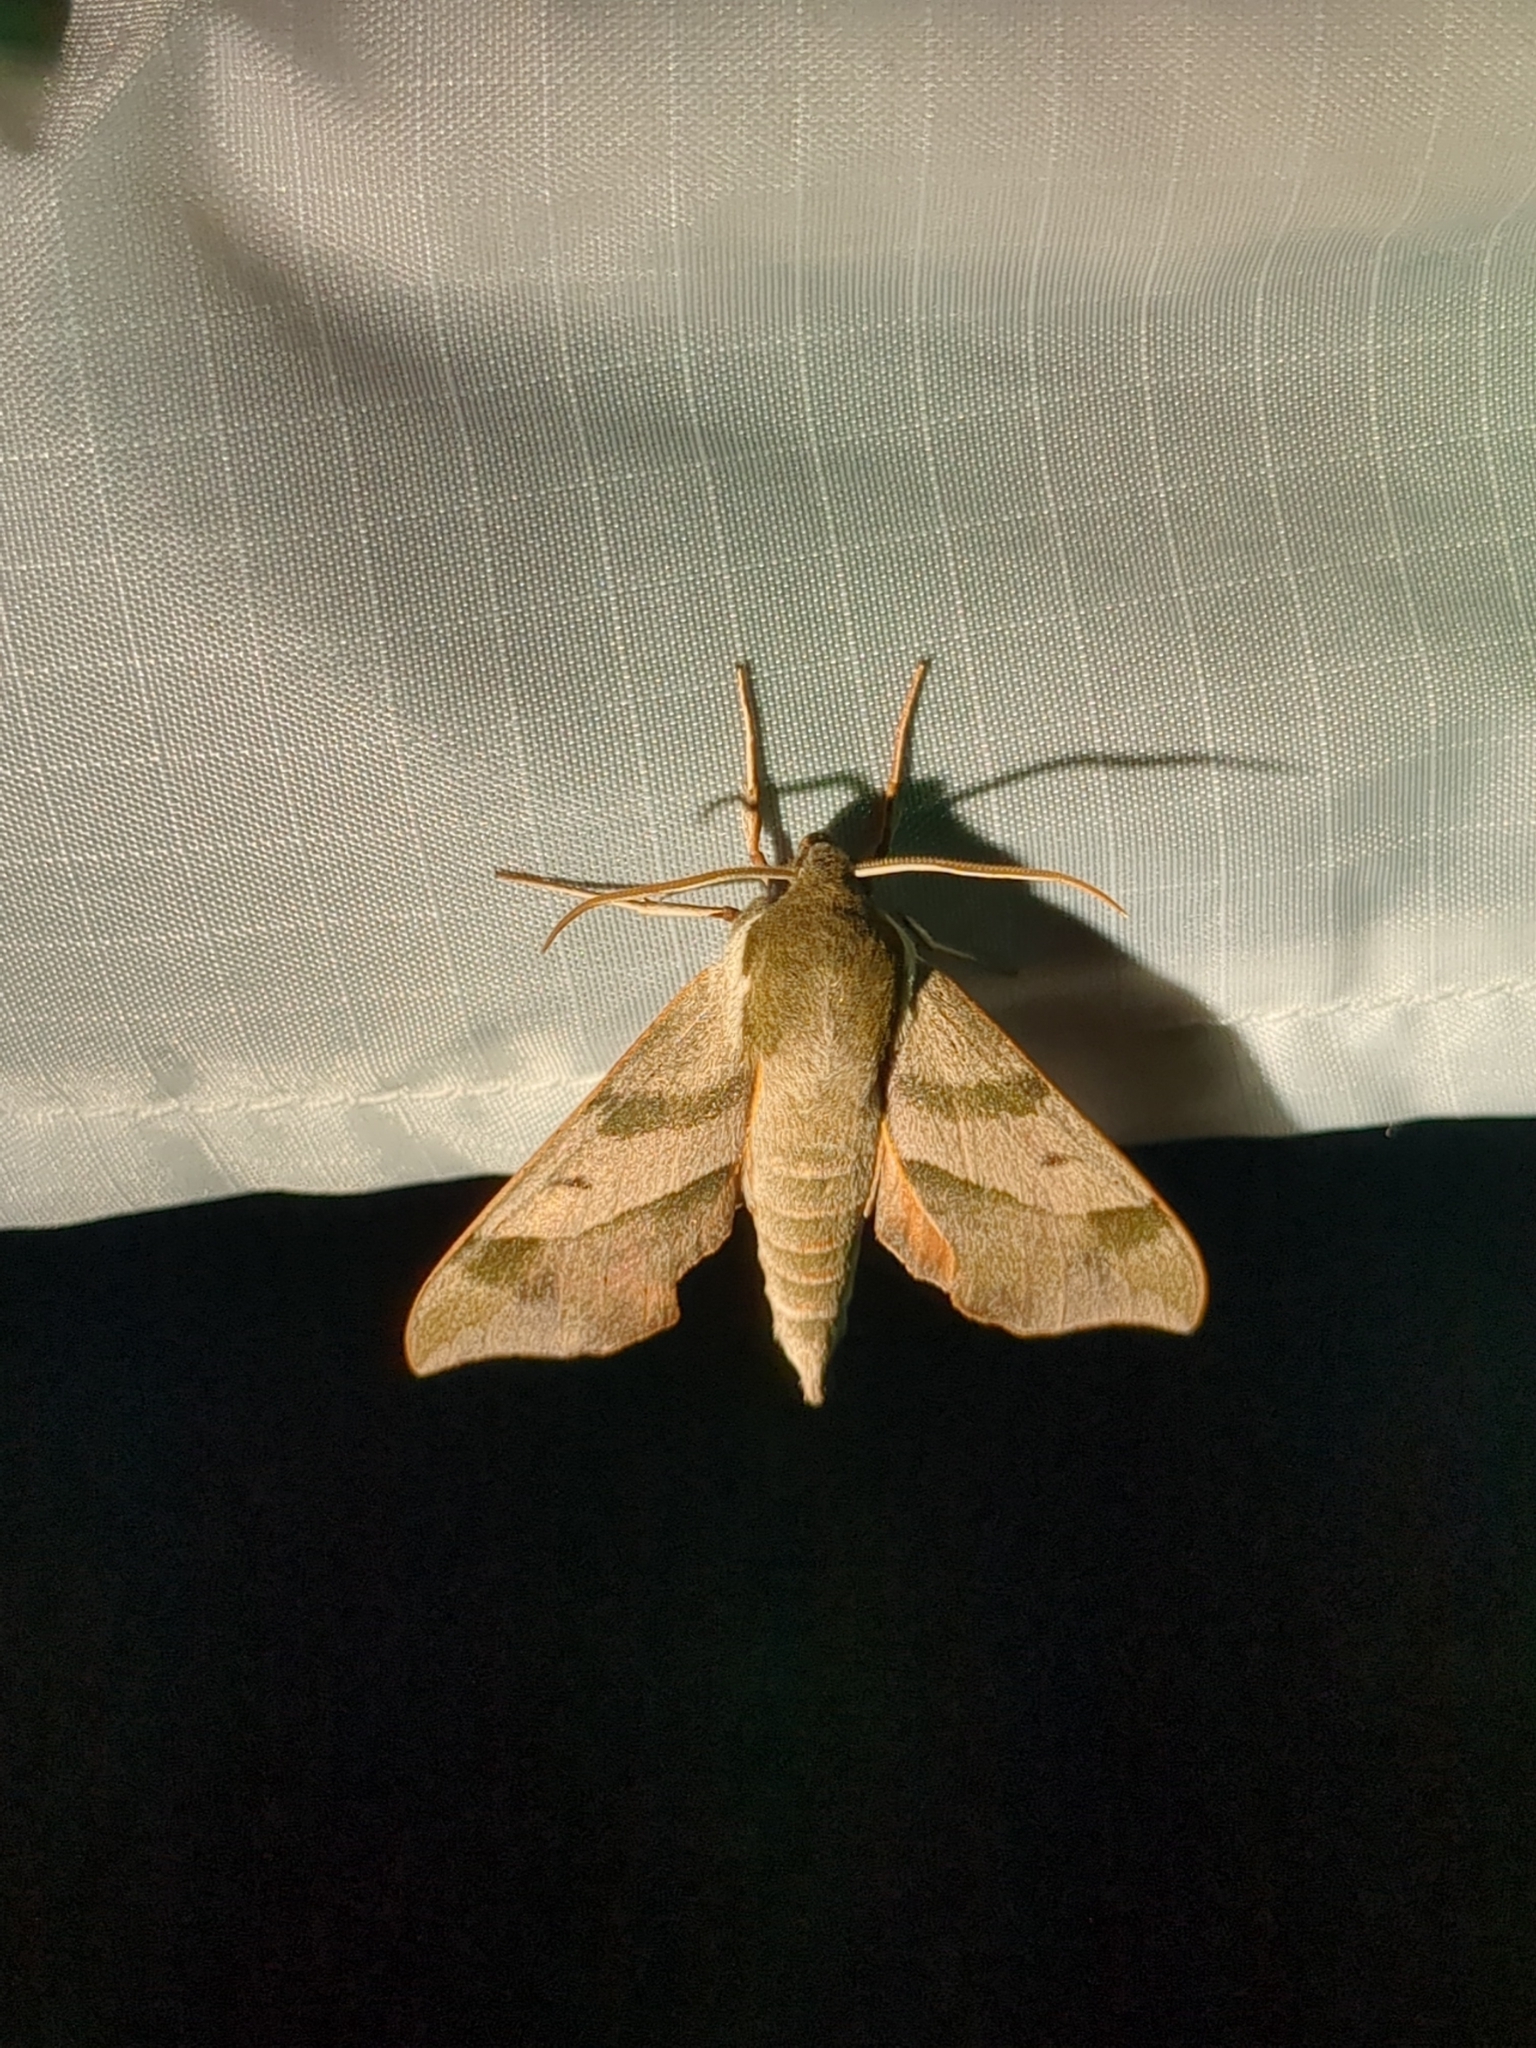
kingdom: Animalia
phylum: Arthropoda
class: Insecta
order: Lepidoptera
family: Sphingidae
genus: Darapsa
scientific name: Darapsa myron
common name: Hog sphinx
